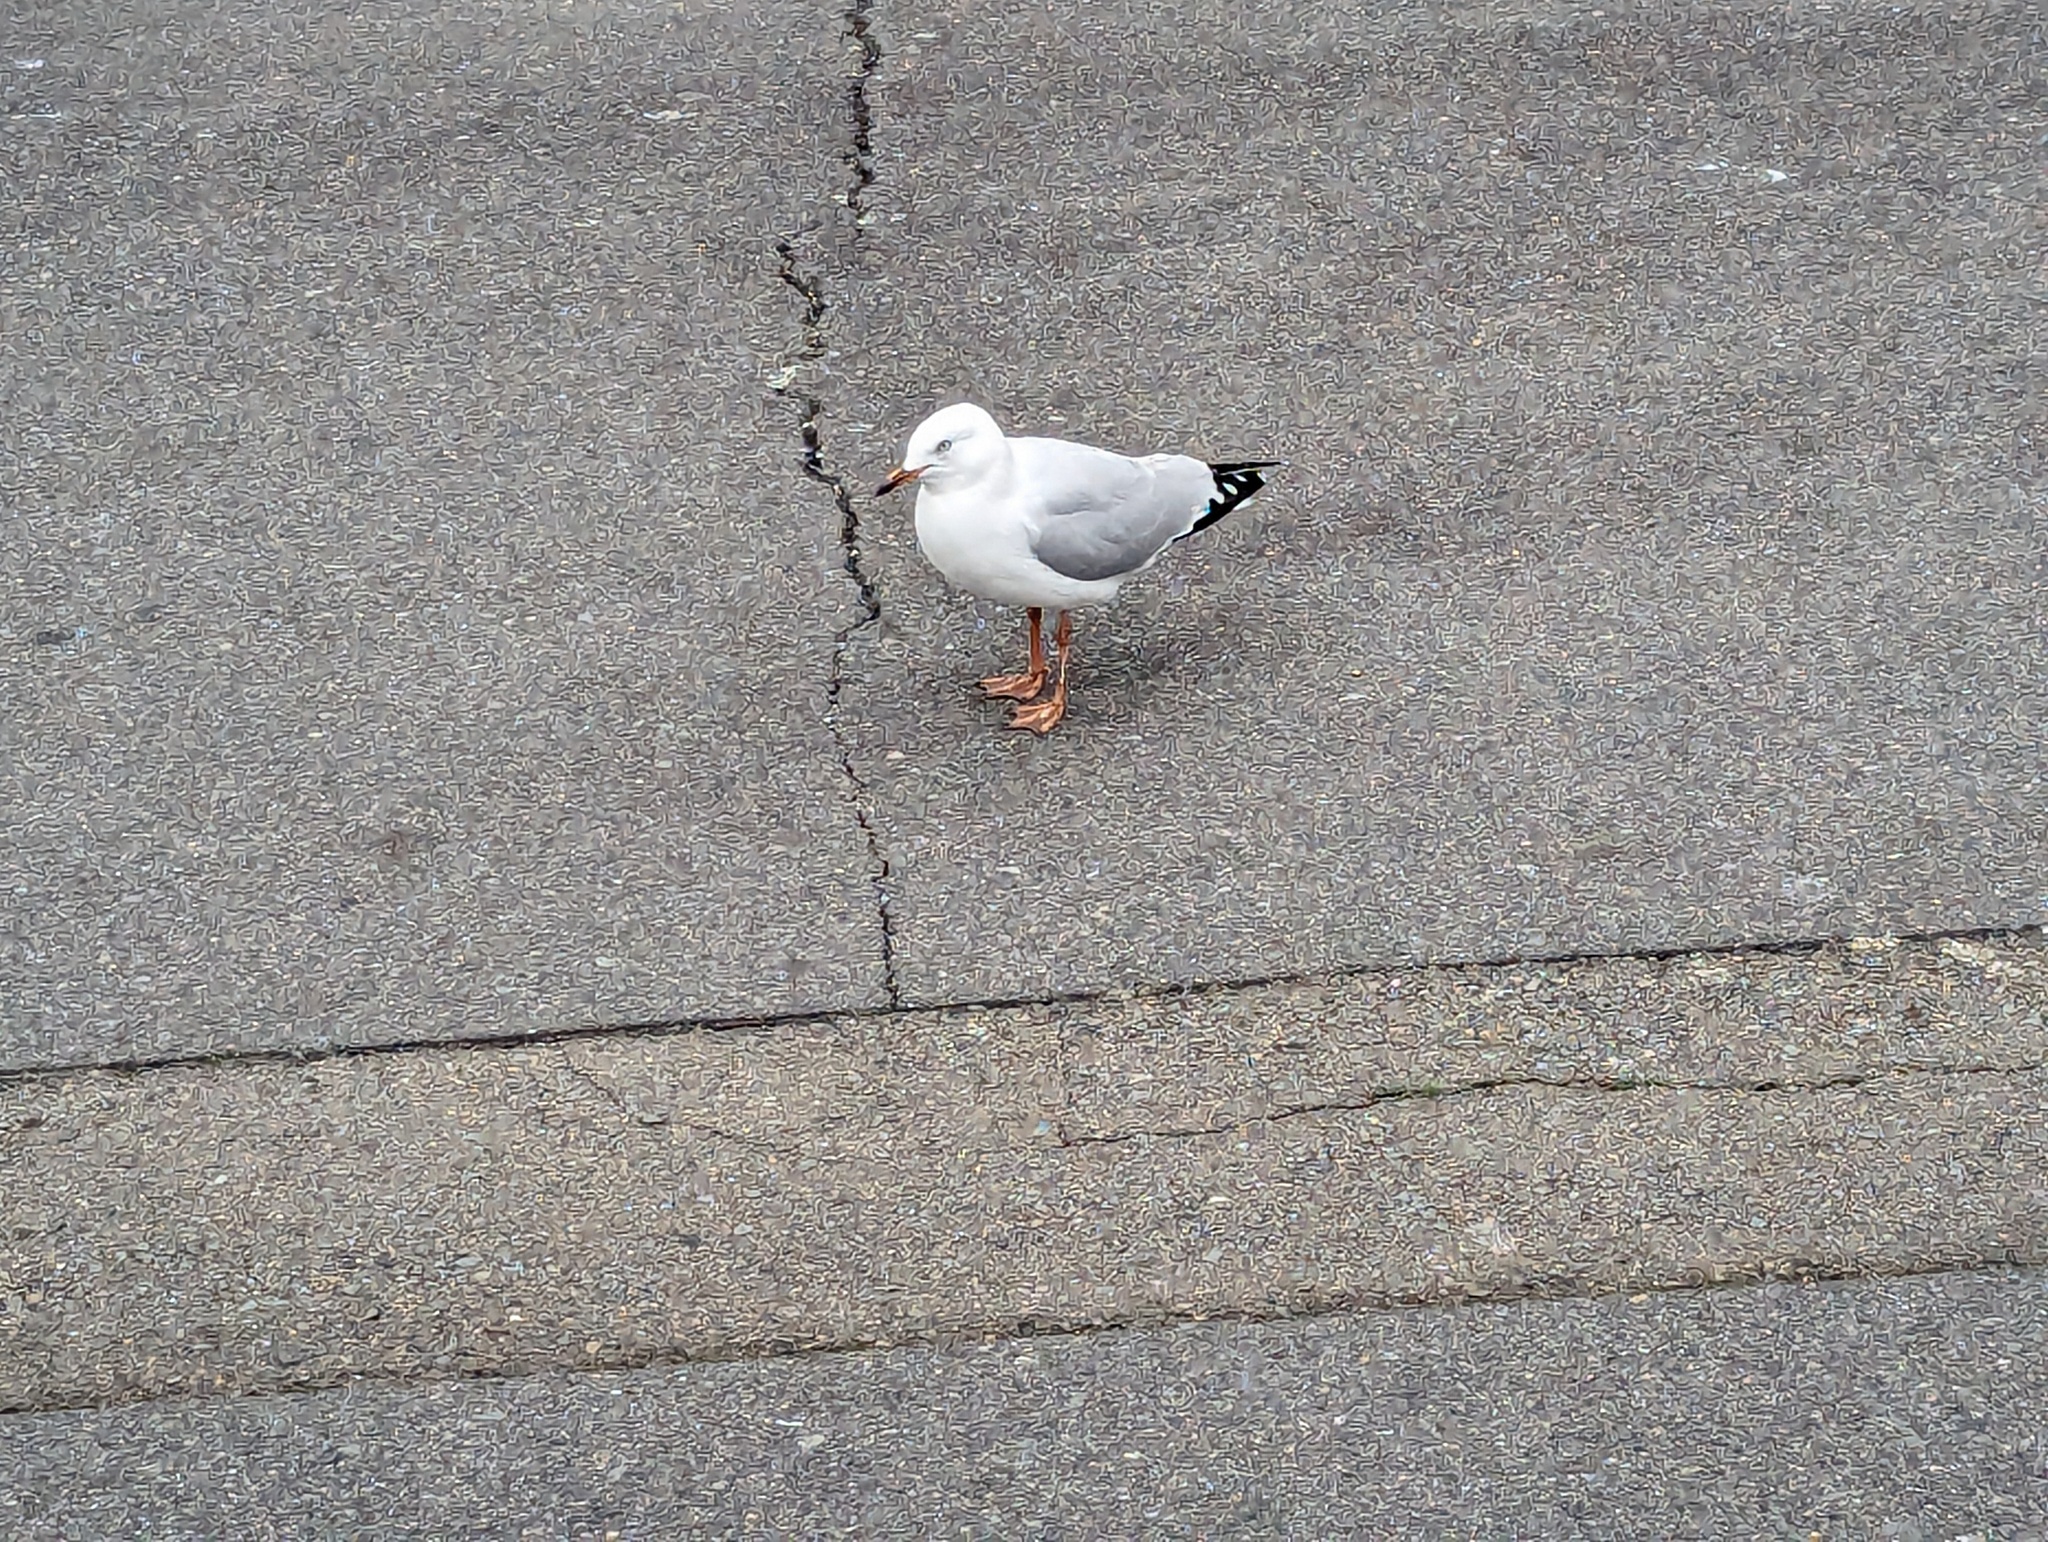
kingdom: Animalia
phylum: Chordata
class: Aves
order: Charadriiformes
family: Laridae
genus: Chroicocephalus
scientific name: Chroicocephalus novaehollandiae
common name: Silver gull
